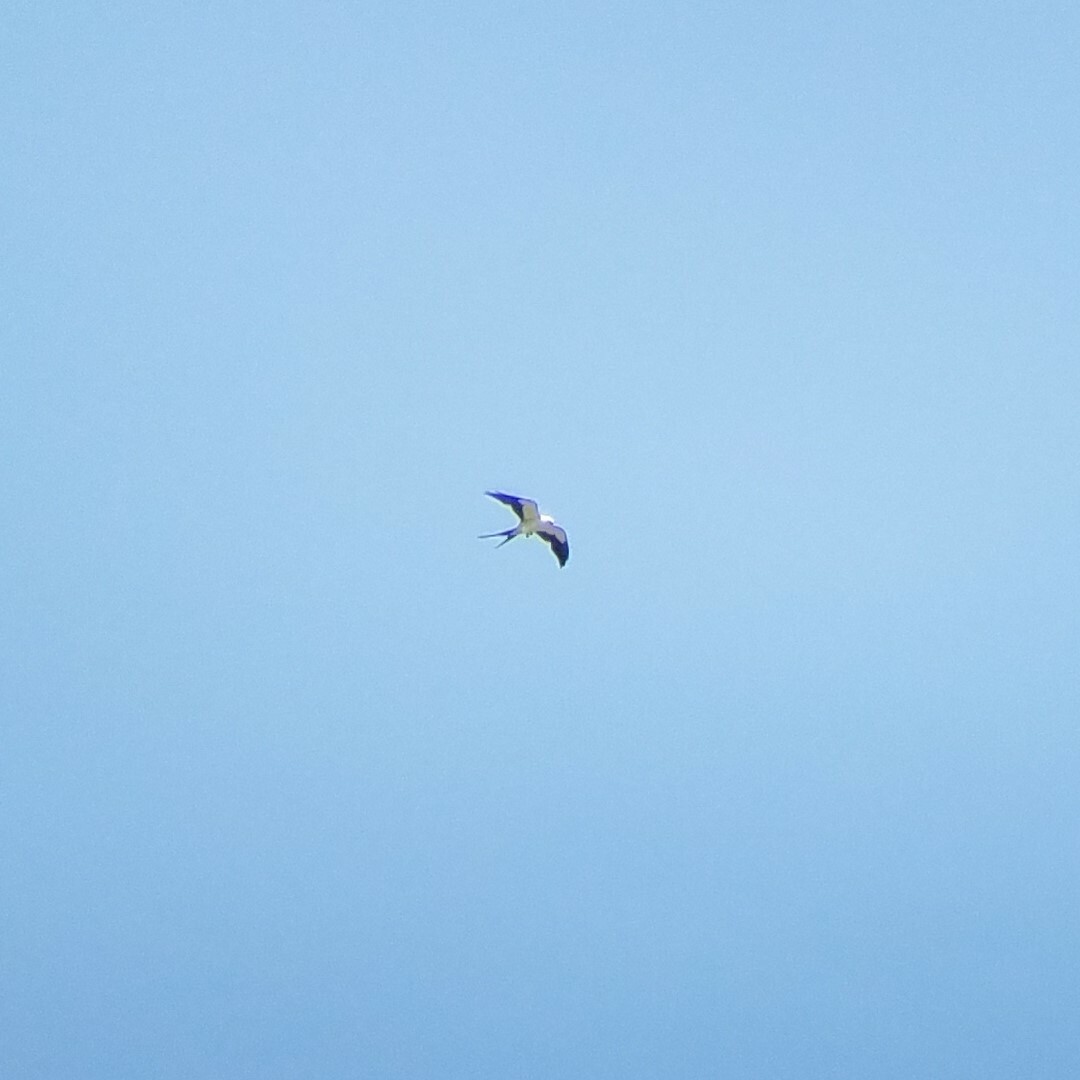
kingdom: Animalia
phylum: Chordata
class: Aves
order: Accipitriformes
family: Accipitridae
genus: Elanoides
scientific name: Elanoides forficatus
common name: Swallow-tailed kite
